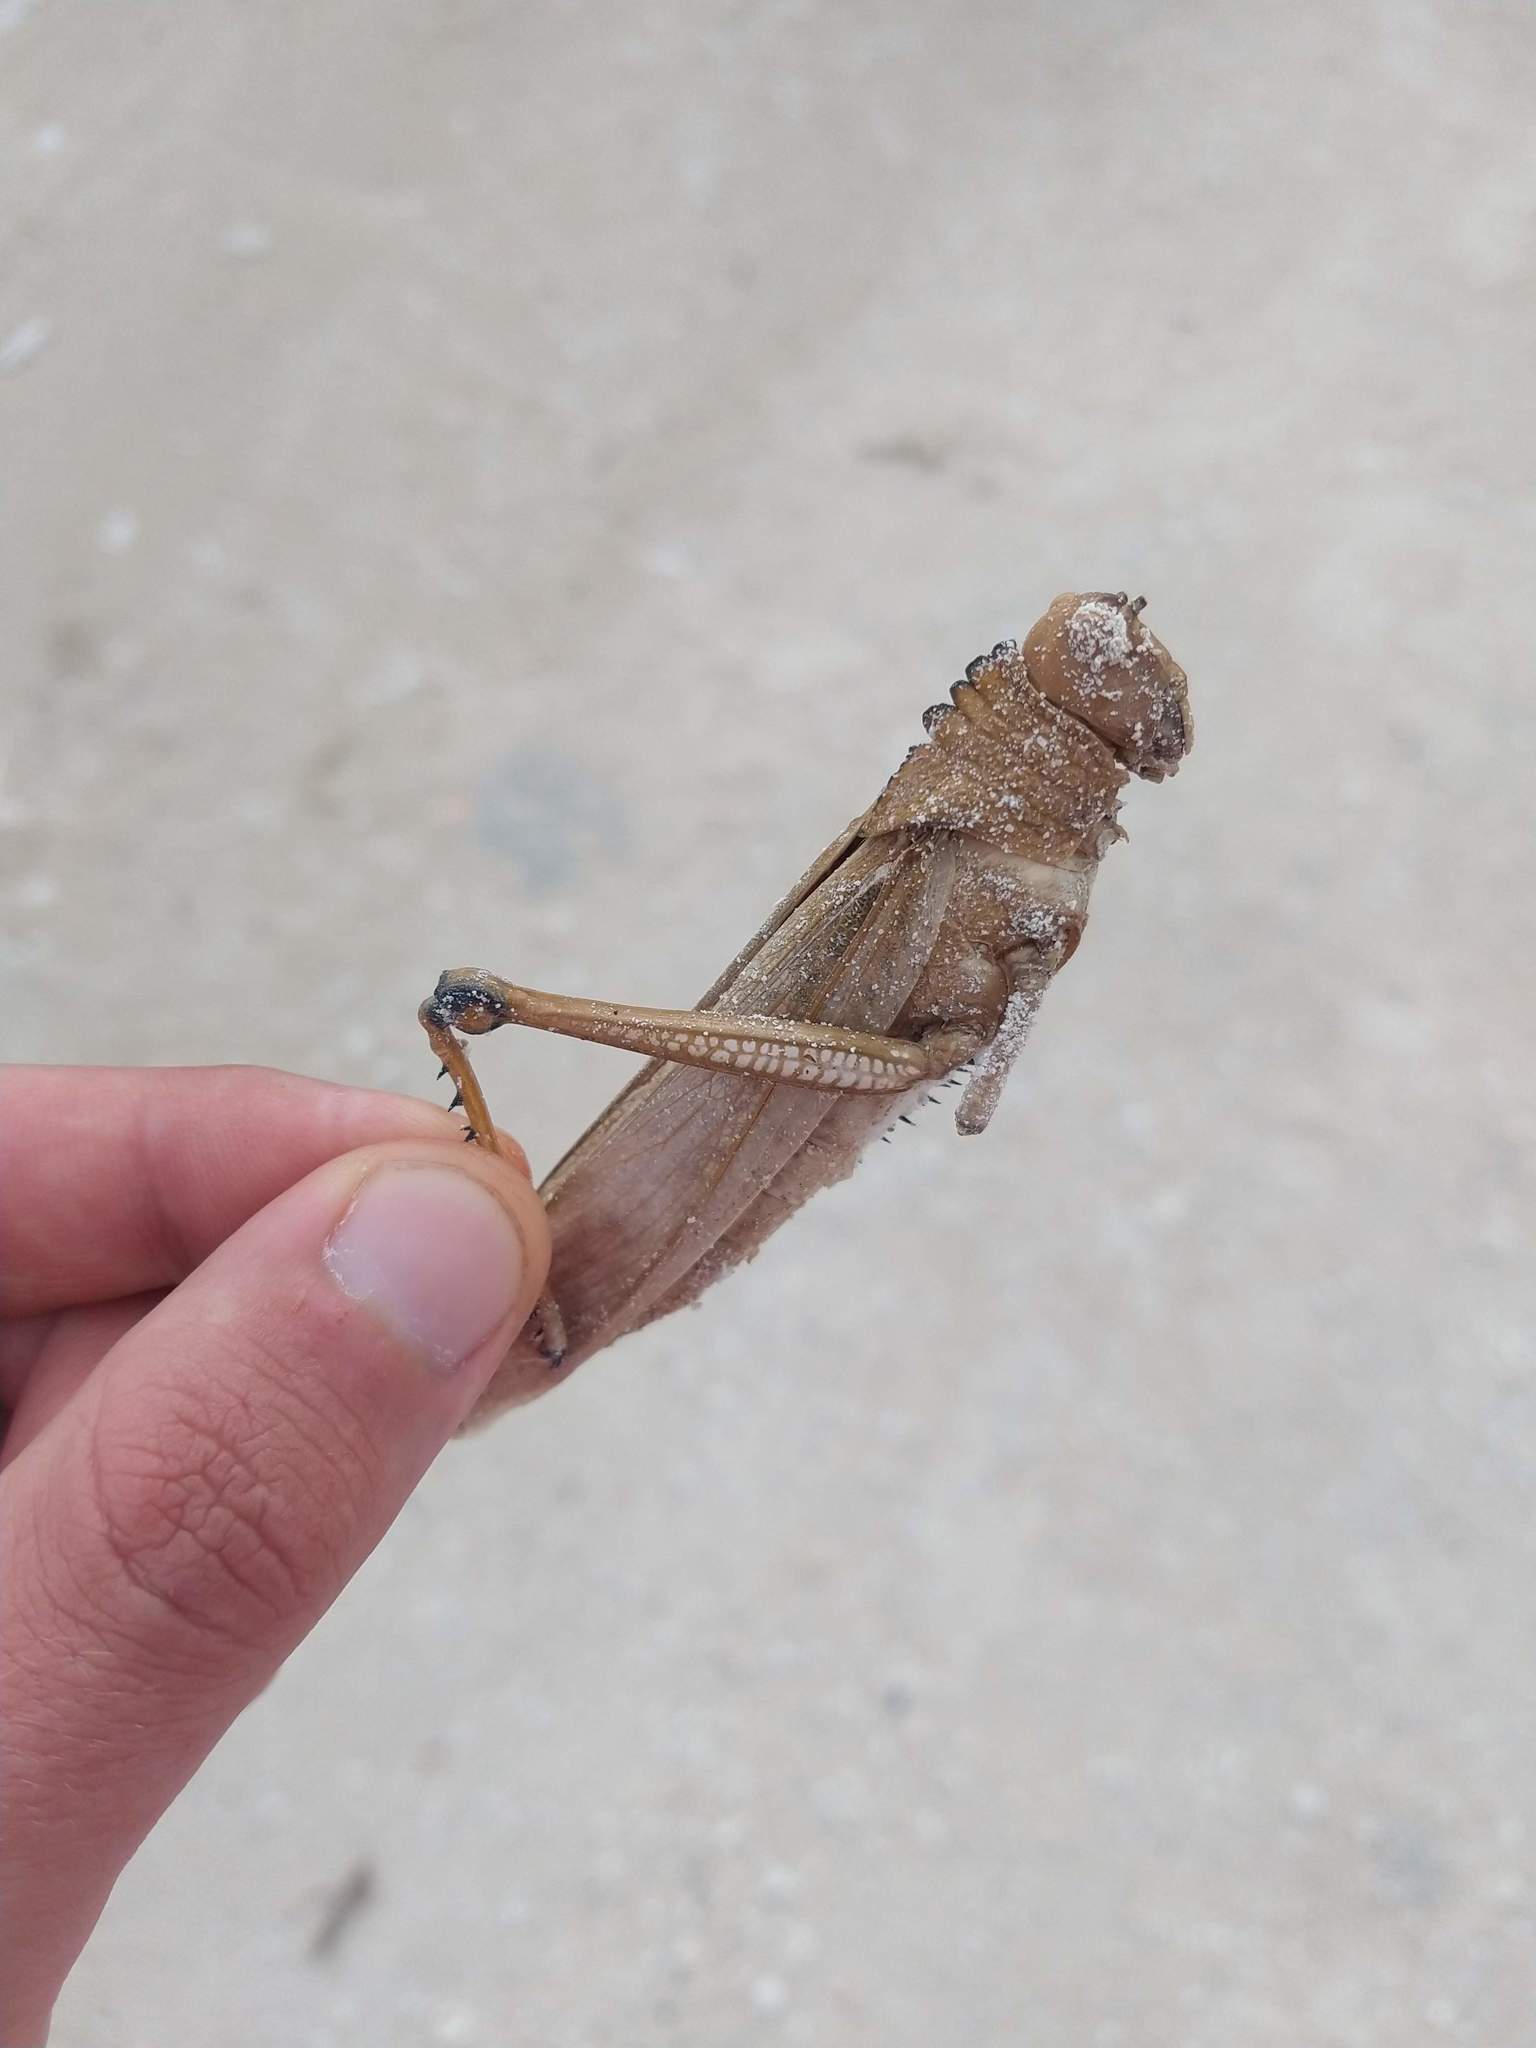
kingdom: Animalia
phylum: Arthropoda
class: Insecta
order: Orthoptera
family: Romaleidae
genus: Tropidacris
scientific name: Tropidacris cristata
